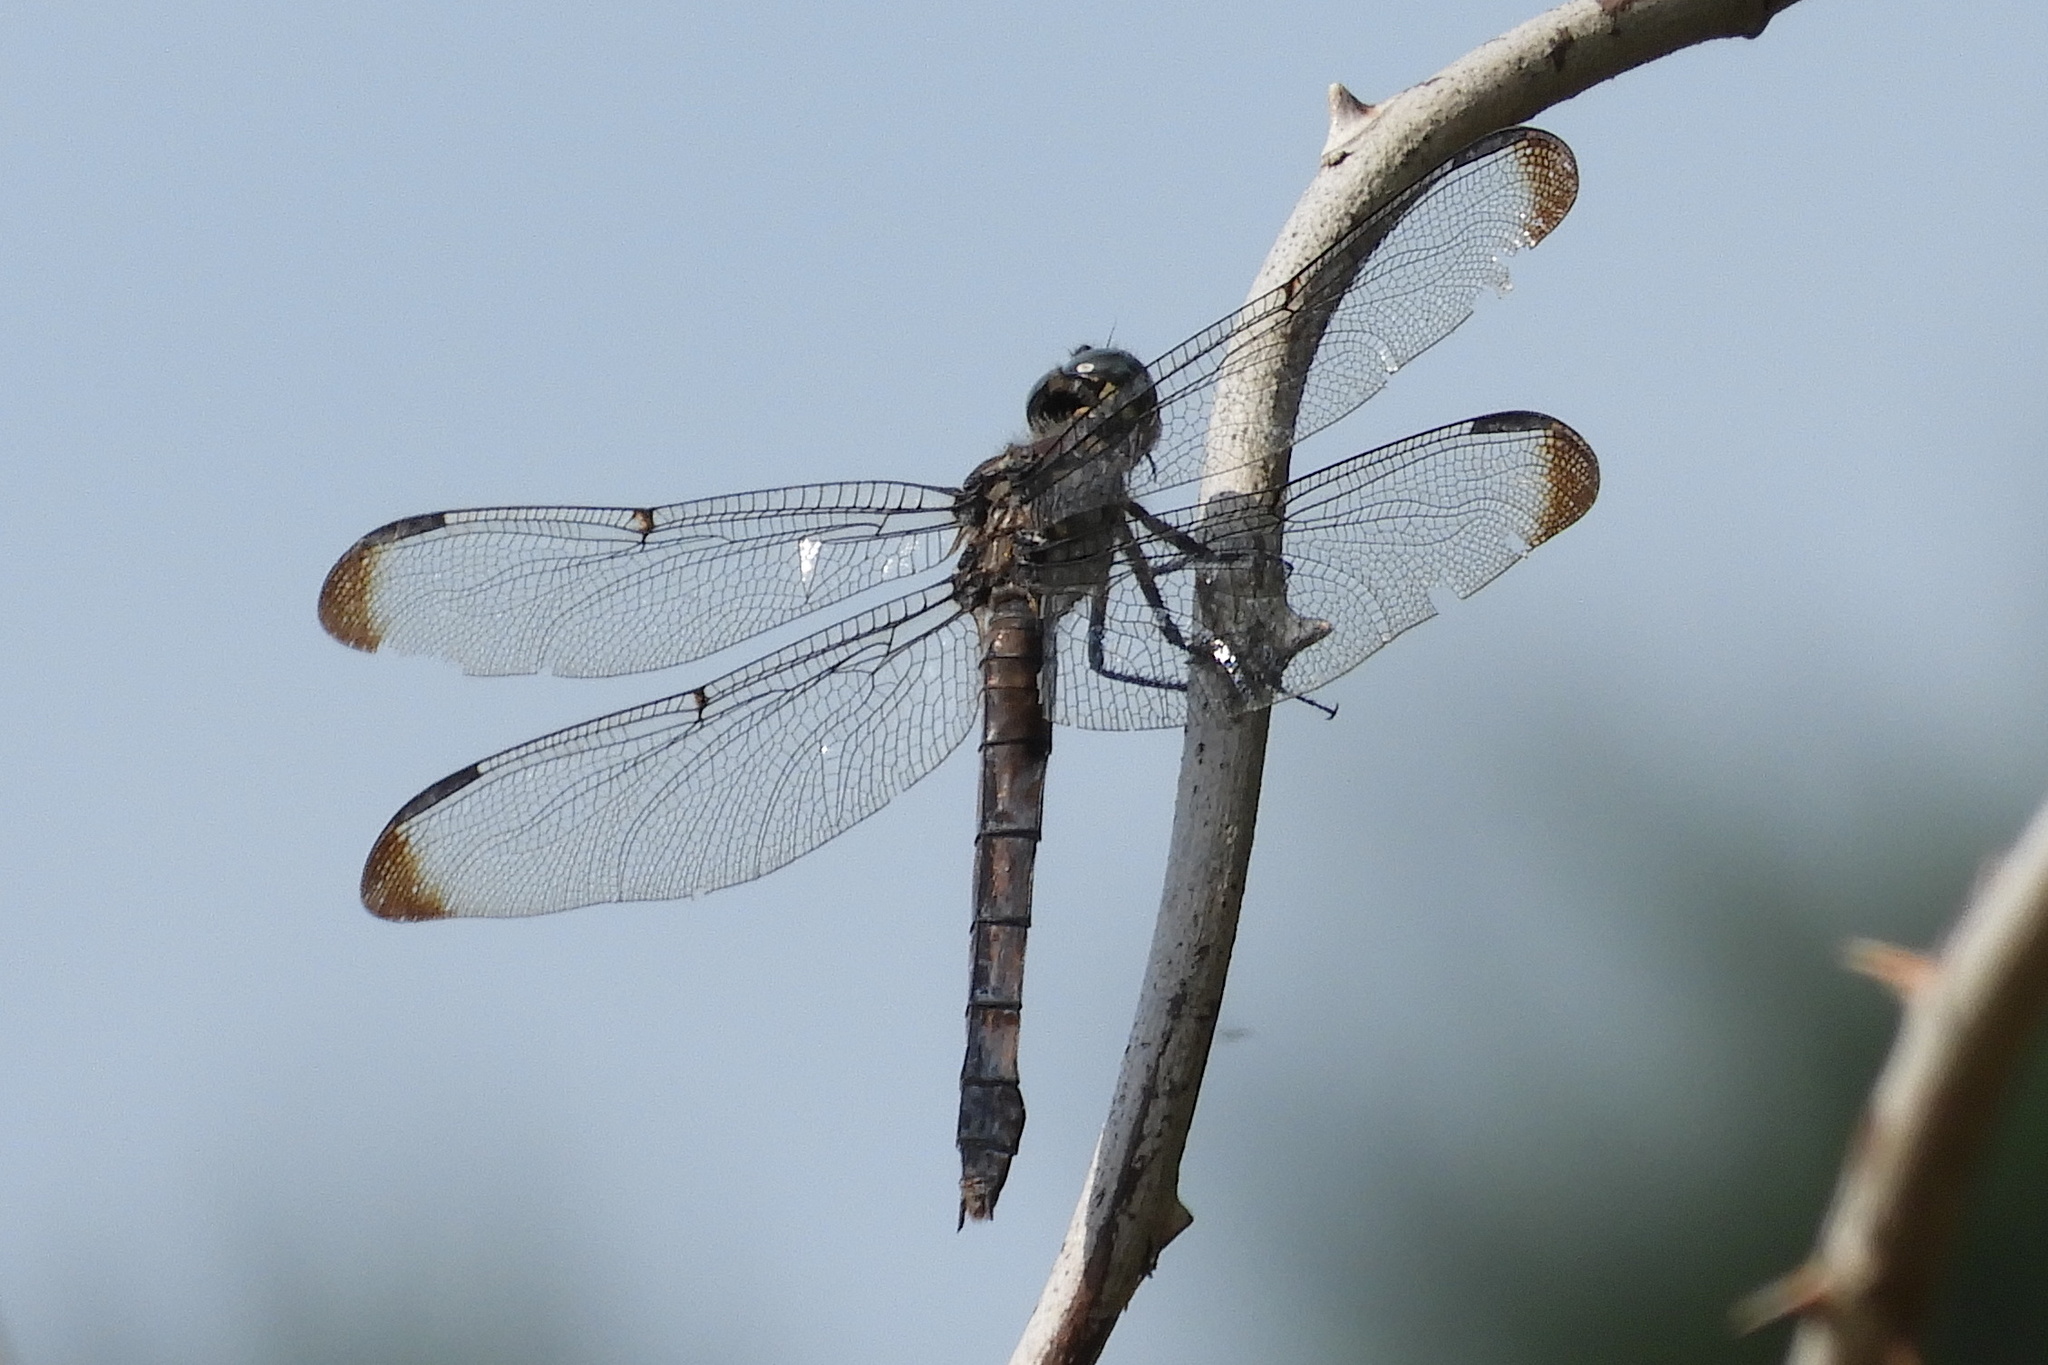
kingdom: Animalia
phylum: Arthropoda
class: Insecta
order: Odonata
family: Libellulidae
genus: Libellula
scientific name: Libellula vibrans
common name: Great blue skimmer
